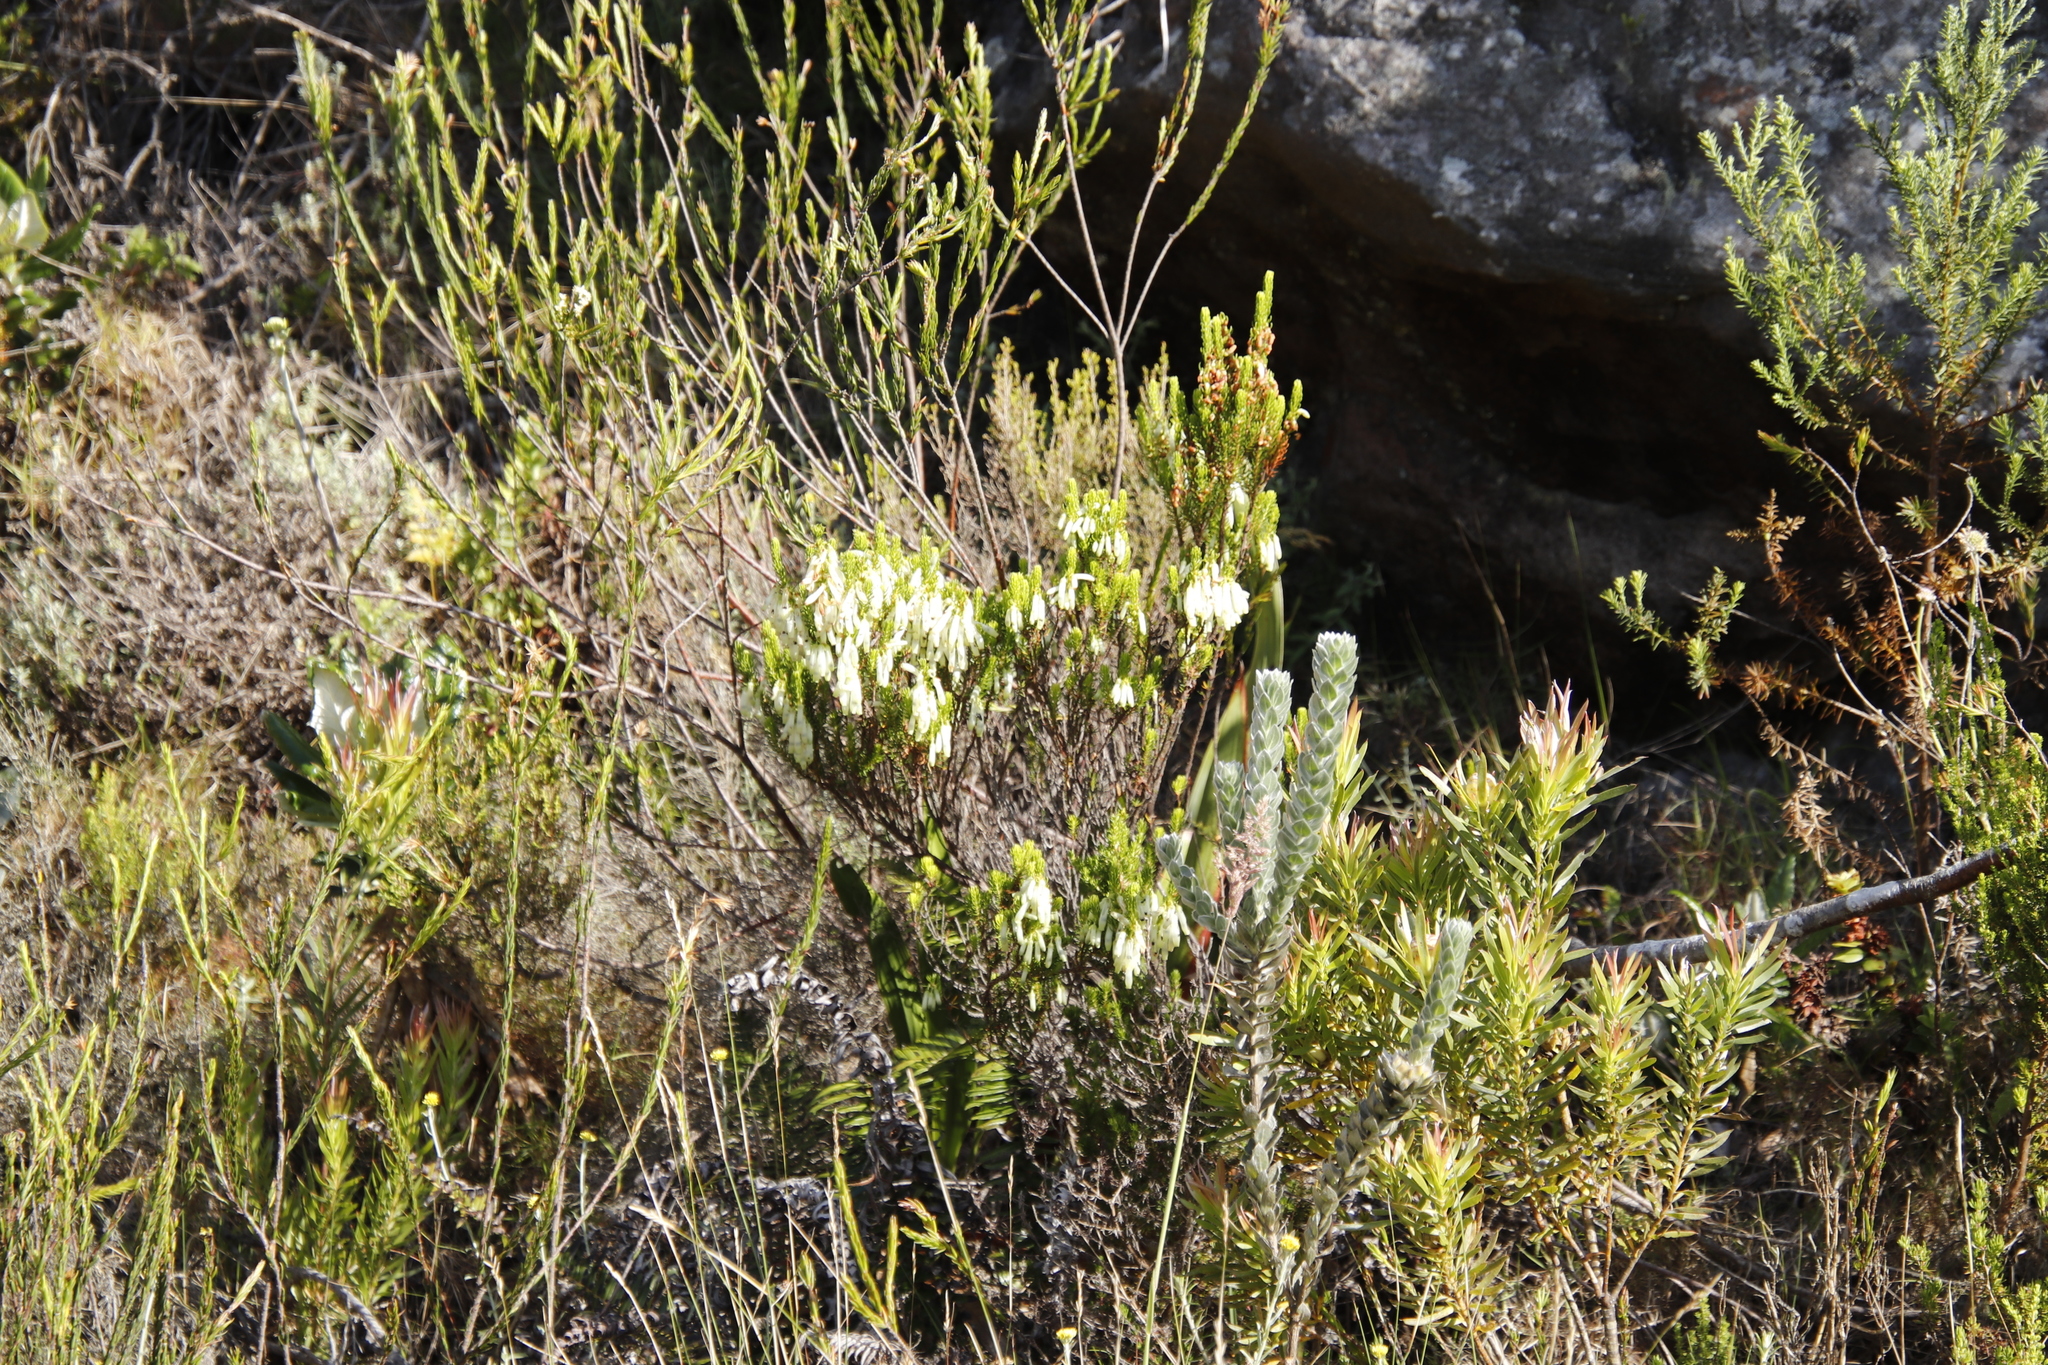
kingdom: Plantae
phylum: Tracheophyta
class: Magnoliopsida
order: Ericales
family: Ericaceae
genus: Erica
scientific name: Erica mammosa
